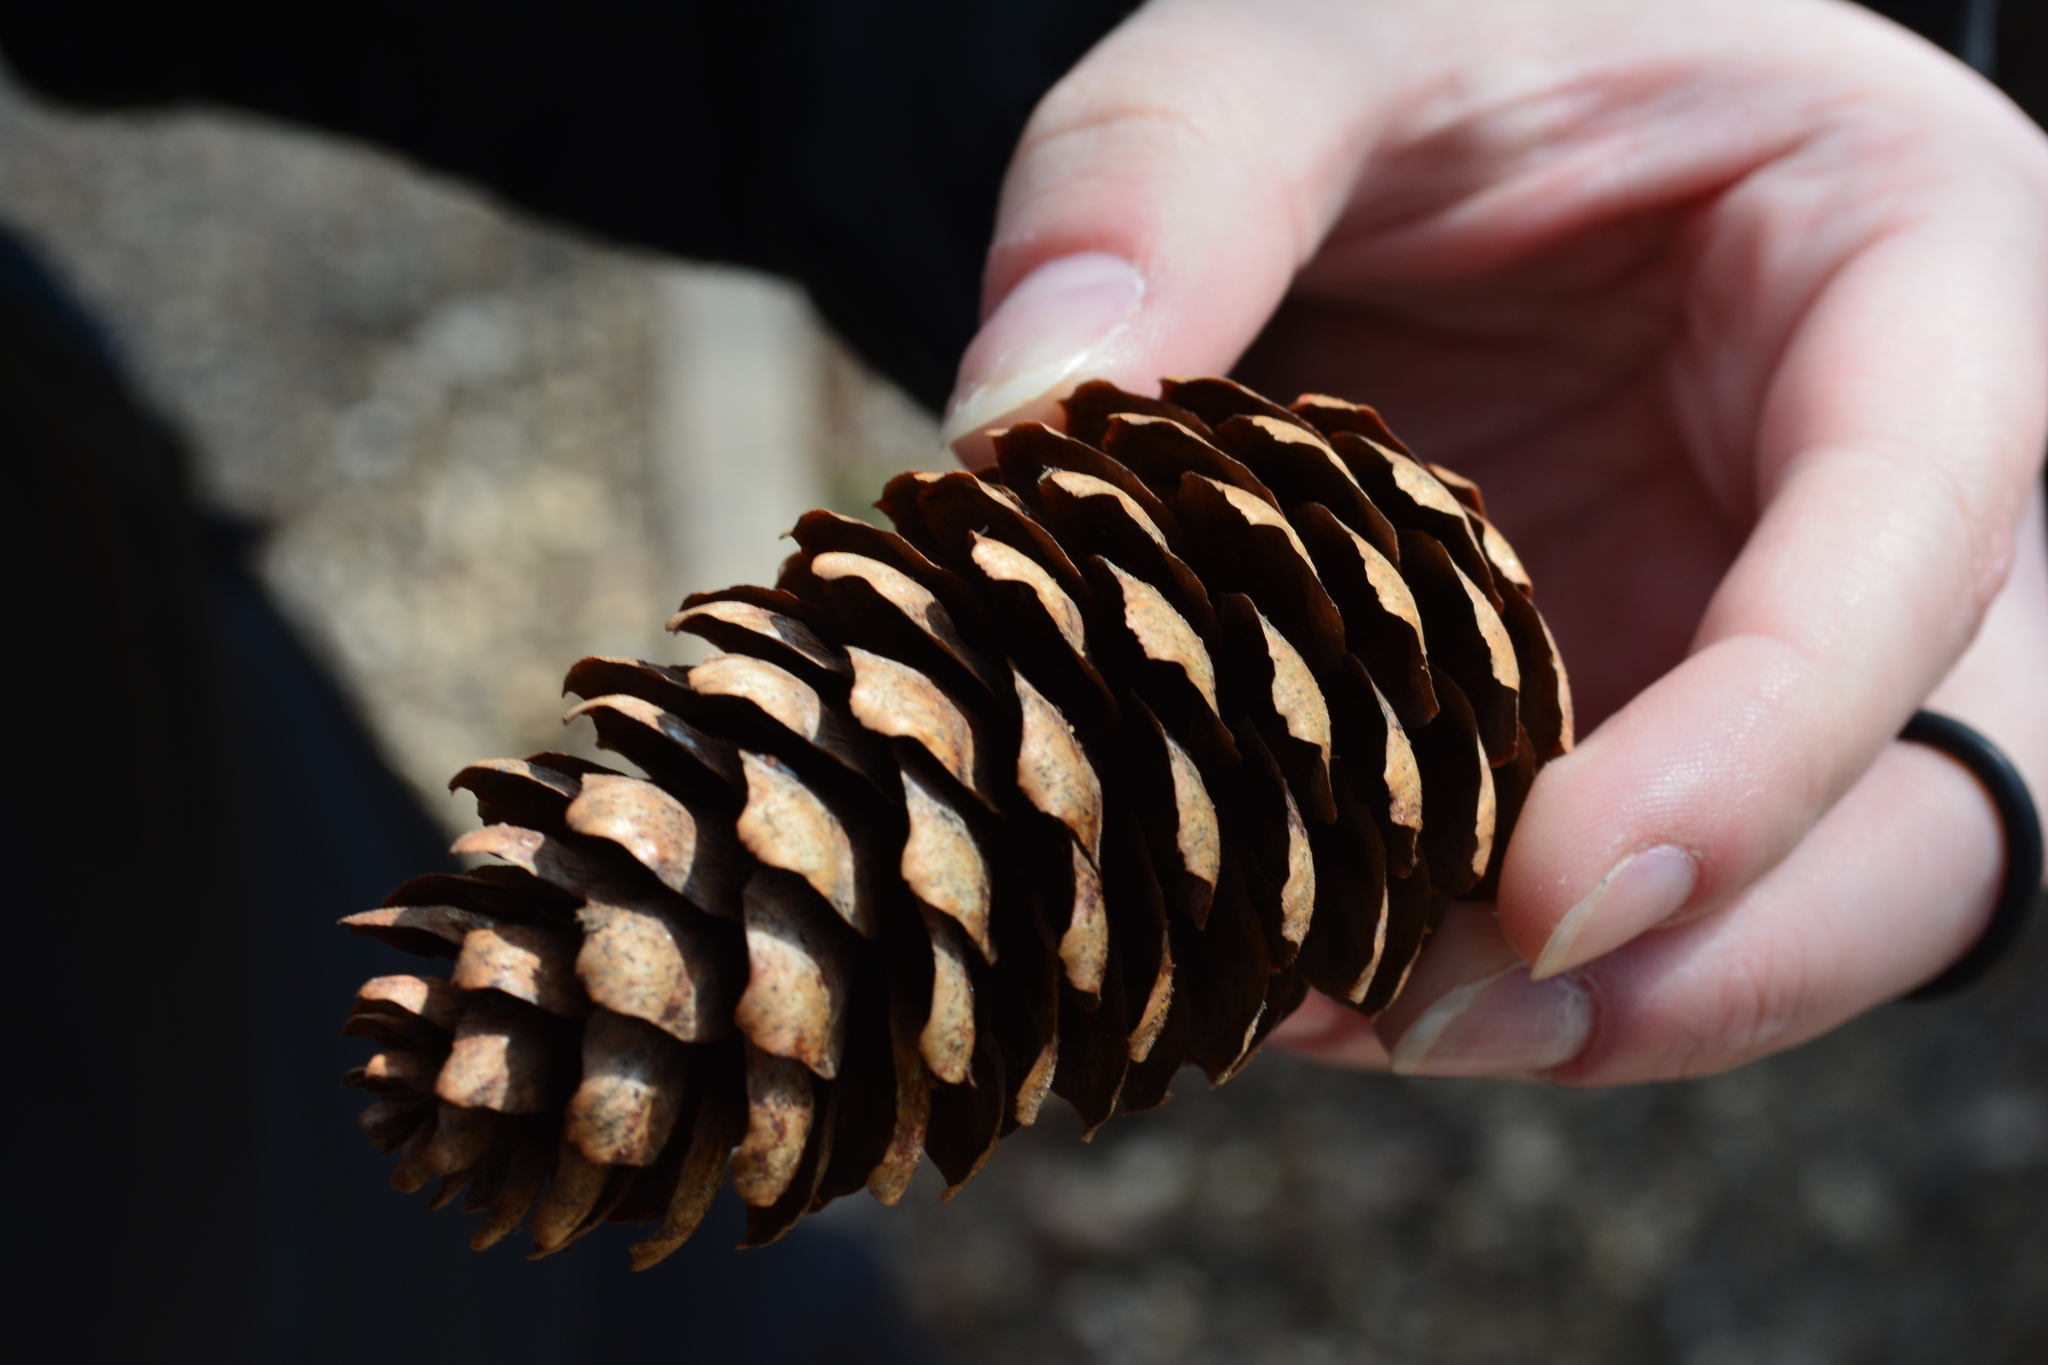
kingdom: Plantae
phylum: Tracheophyta
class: Pinopsida
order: Pinales
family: Pinaceae
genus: Picea
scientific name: Picea abies
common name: Norway spruce
